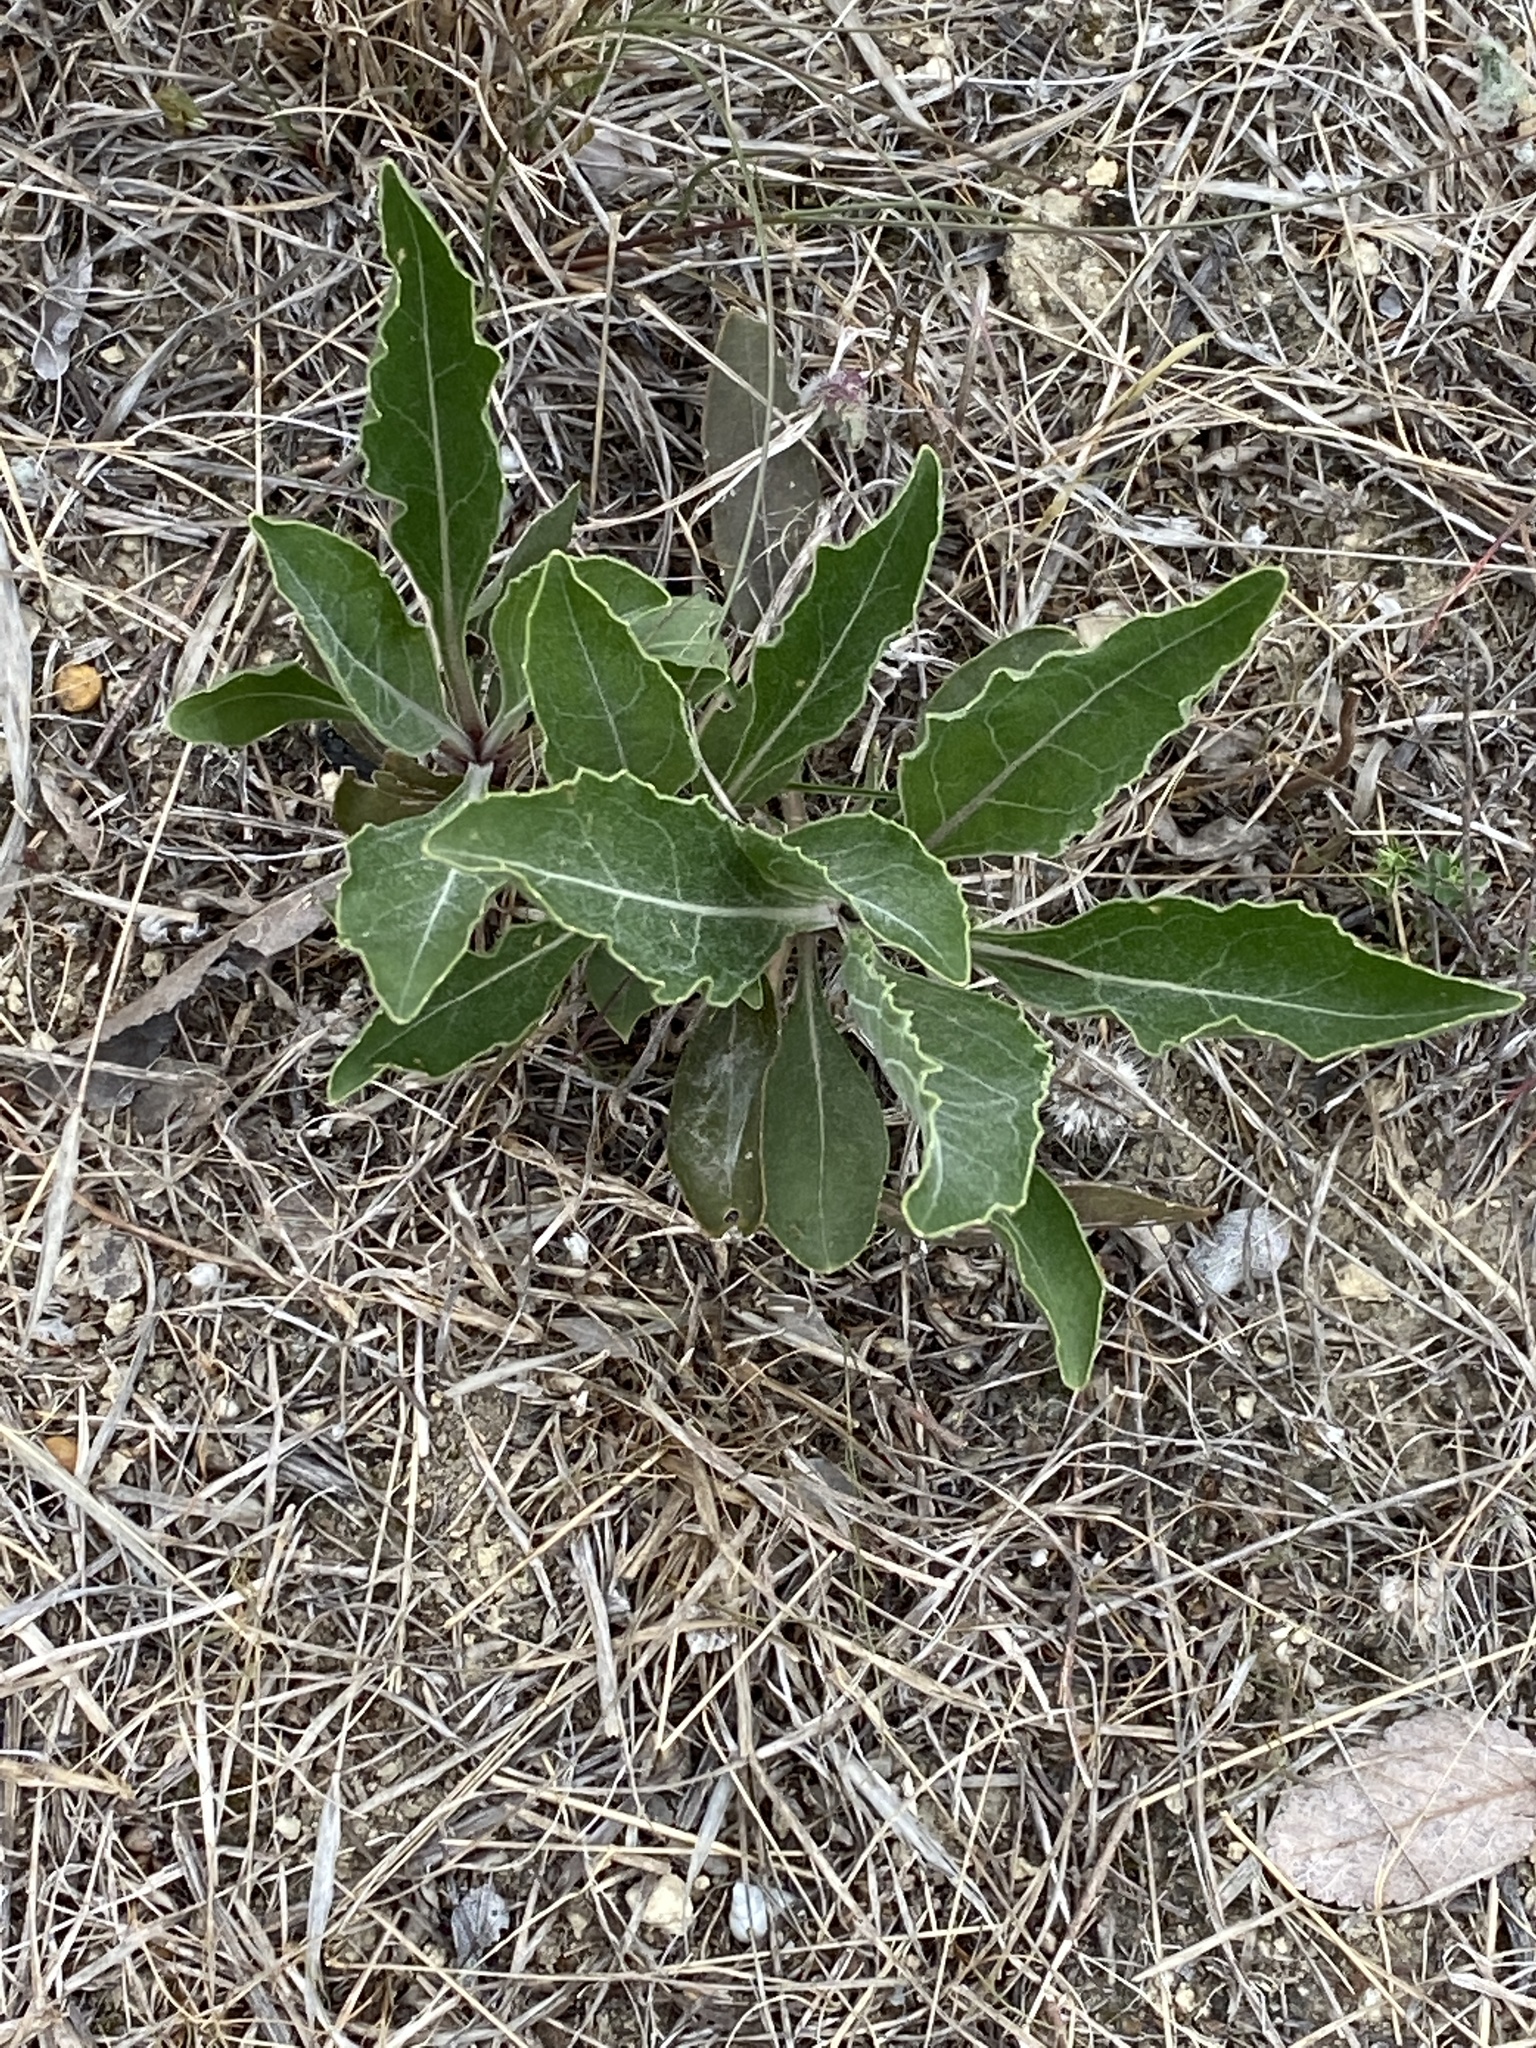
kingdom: Plantae
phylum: Tracheophyta
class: Magnoliopsida
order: Lamiales
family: Plantaginaceae
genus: Penstemon
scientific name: Penstemon cobaea
